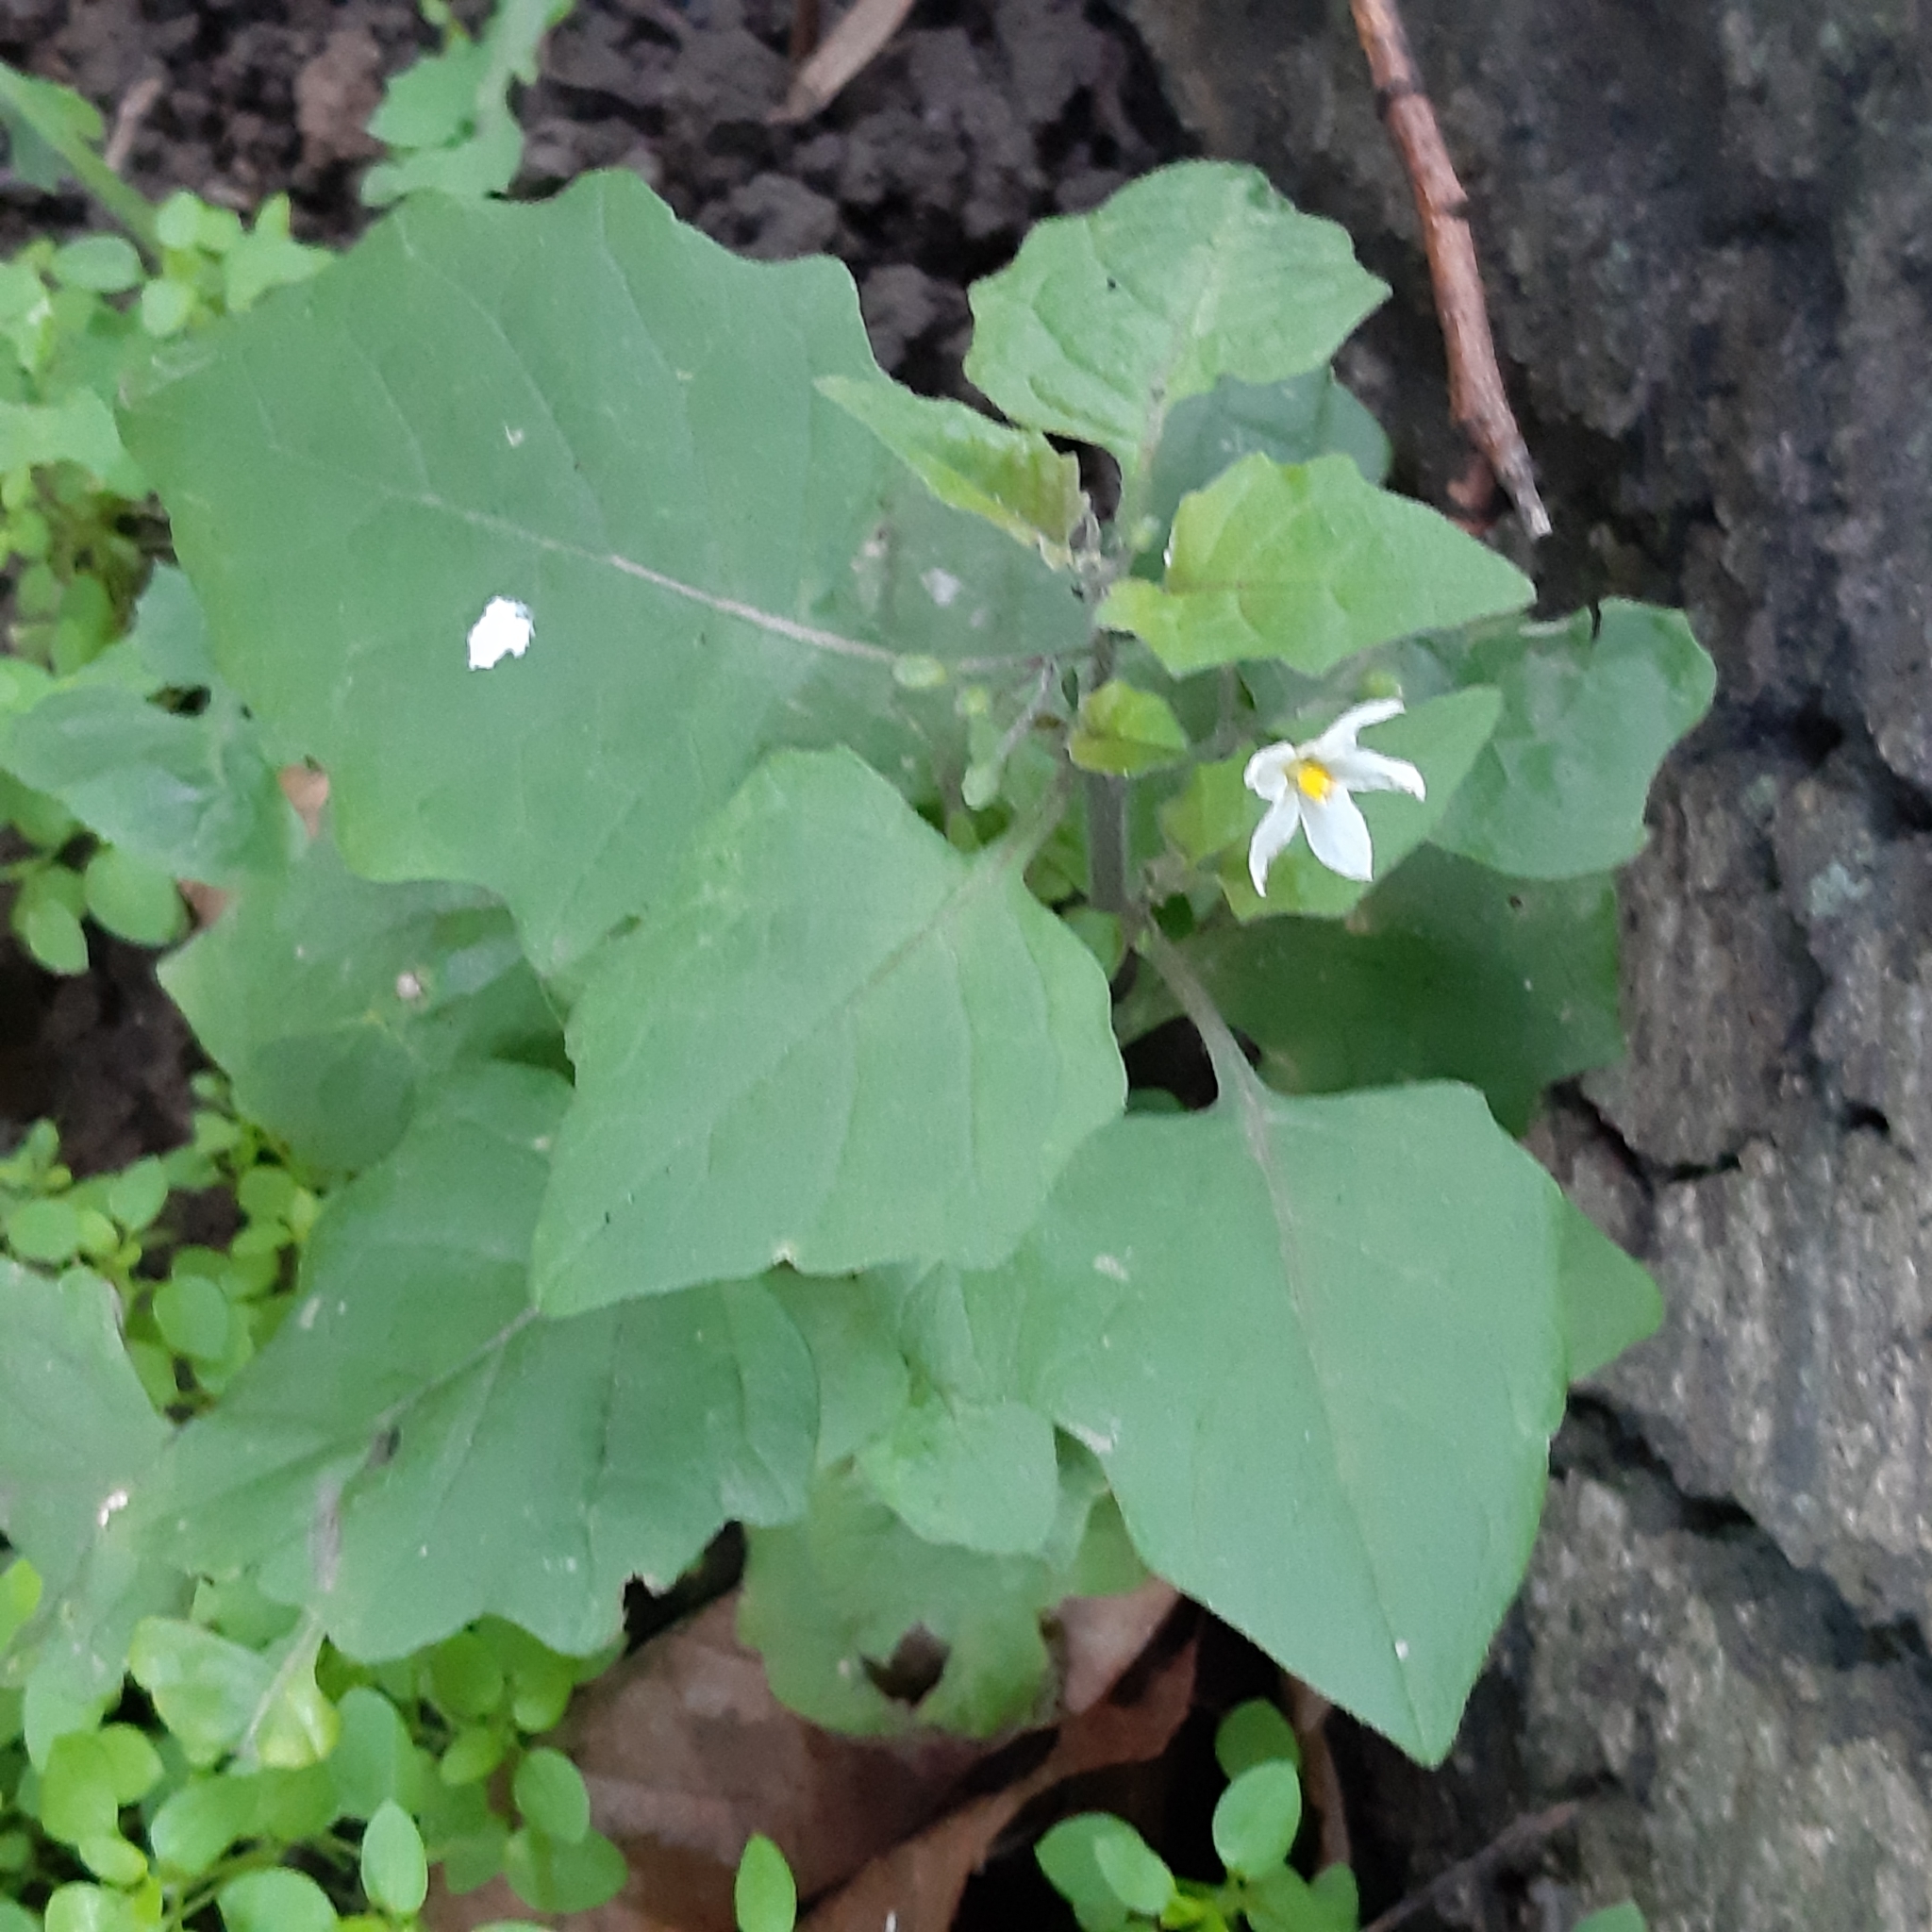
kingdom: Plantae
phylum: Tracheophyta
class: Magnoliopsida
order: Solanales
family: Solanaceae
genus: Solanum
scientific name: Solanum nigrum
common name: Black nightshade
